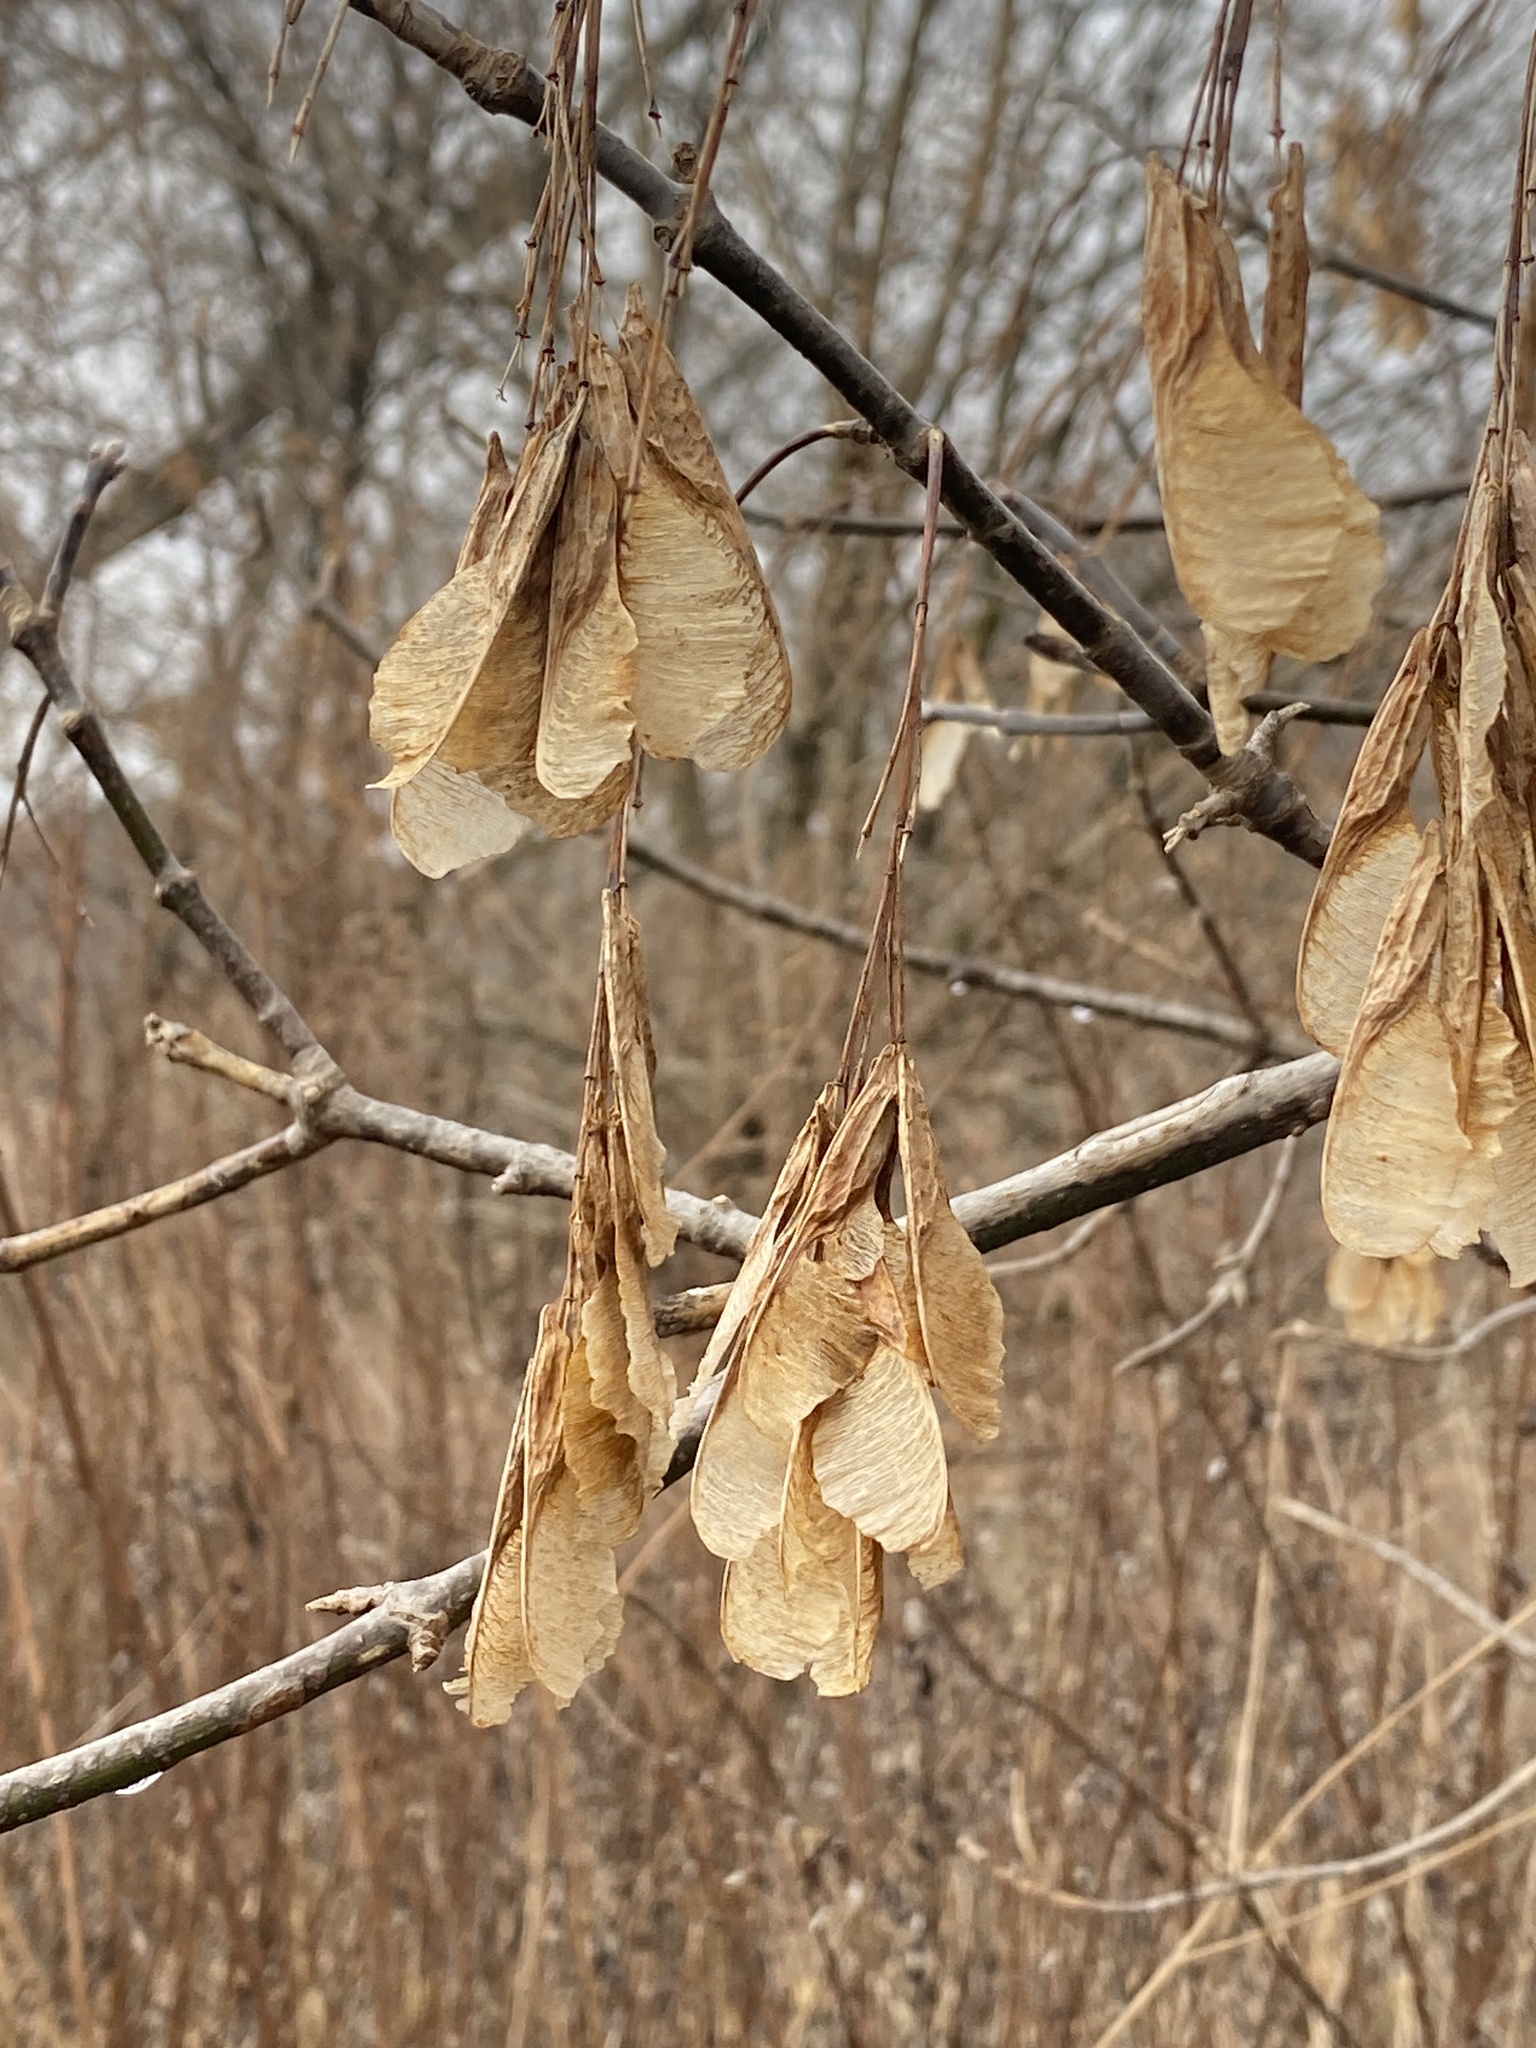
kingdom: Plantae
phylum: Tracheophyta
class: Magnoliopsida
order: Sapindales
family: Sapindaceae
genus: Acer
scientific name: Acer negundo
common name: Ashleaf maple
